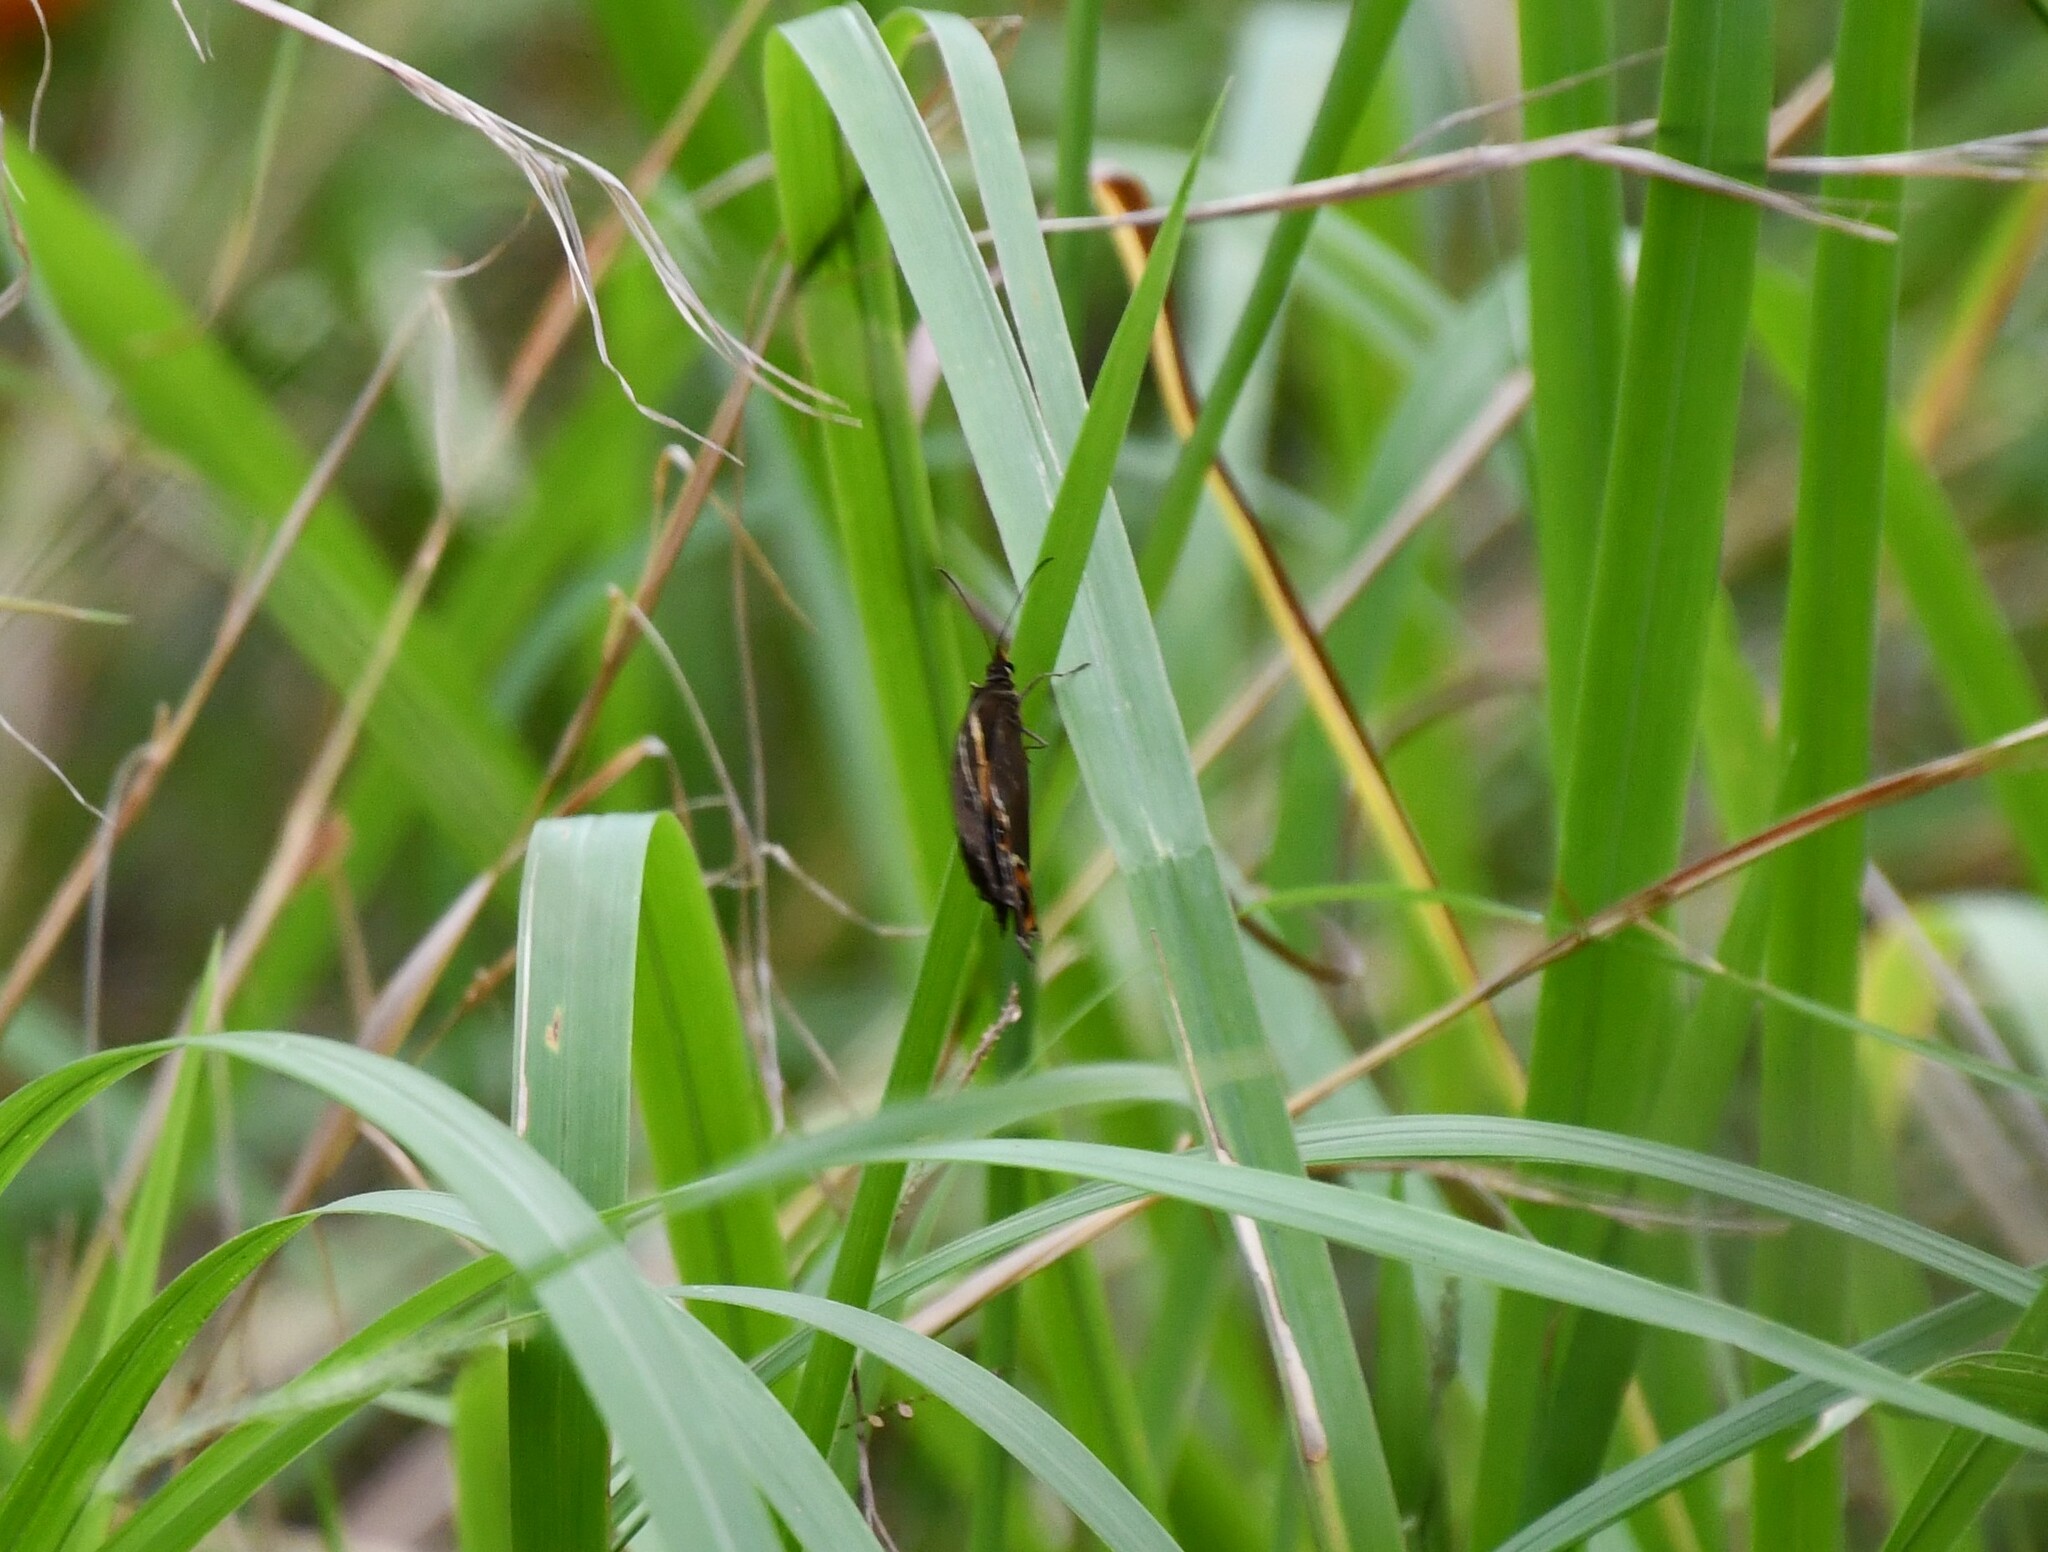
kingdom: Animalia
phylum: Arthropoda
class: Insecta
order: Lepidoptera
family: Nymphalidae
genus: Tisiphone
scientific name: Tisiphone abeona
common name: Swordgrass brown
